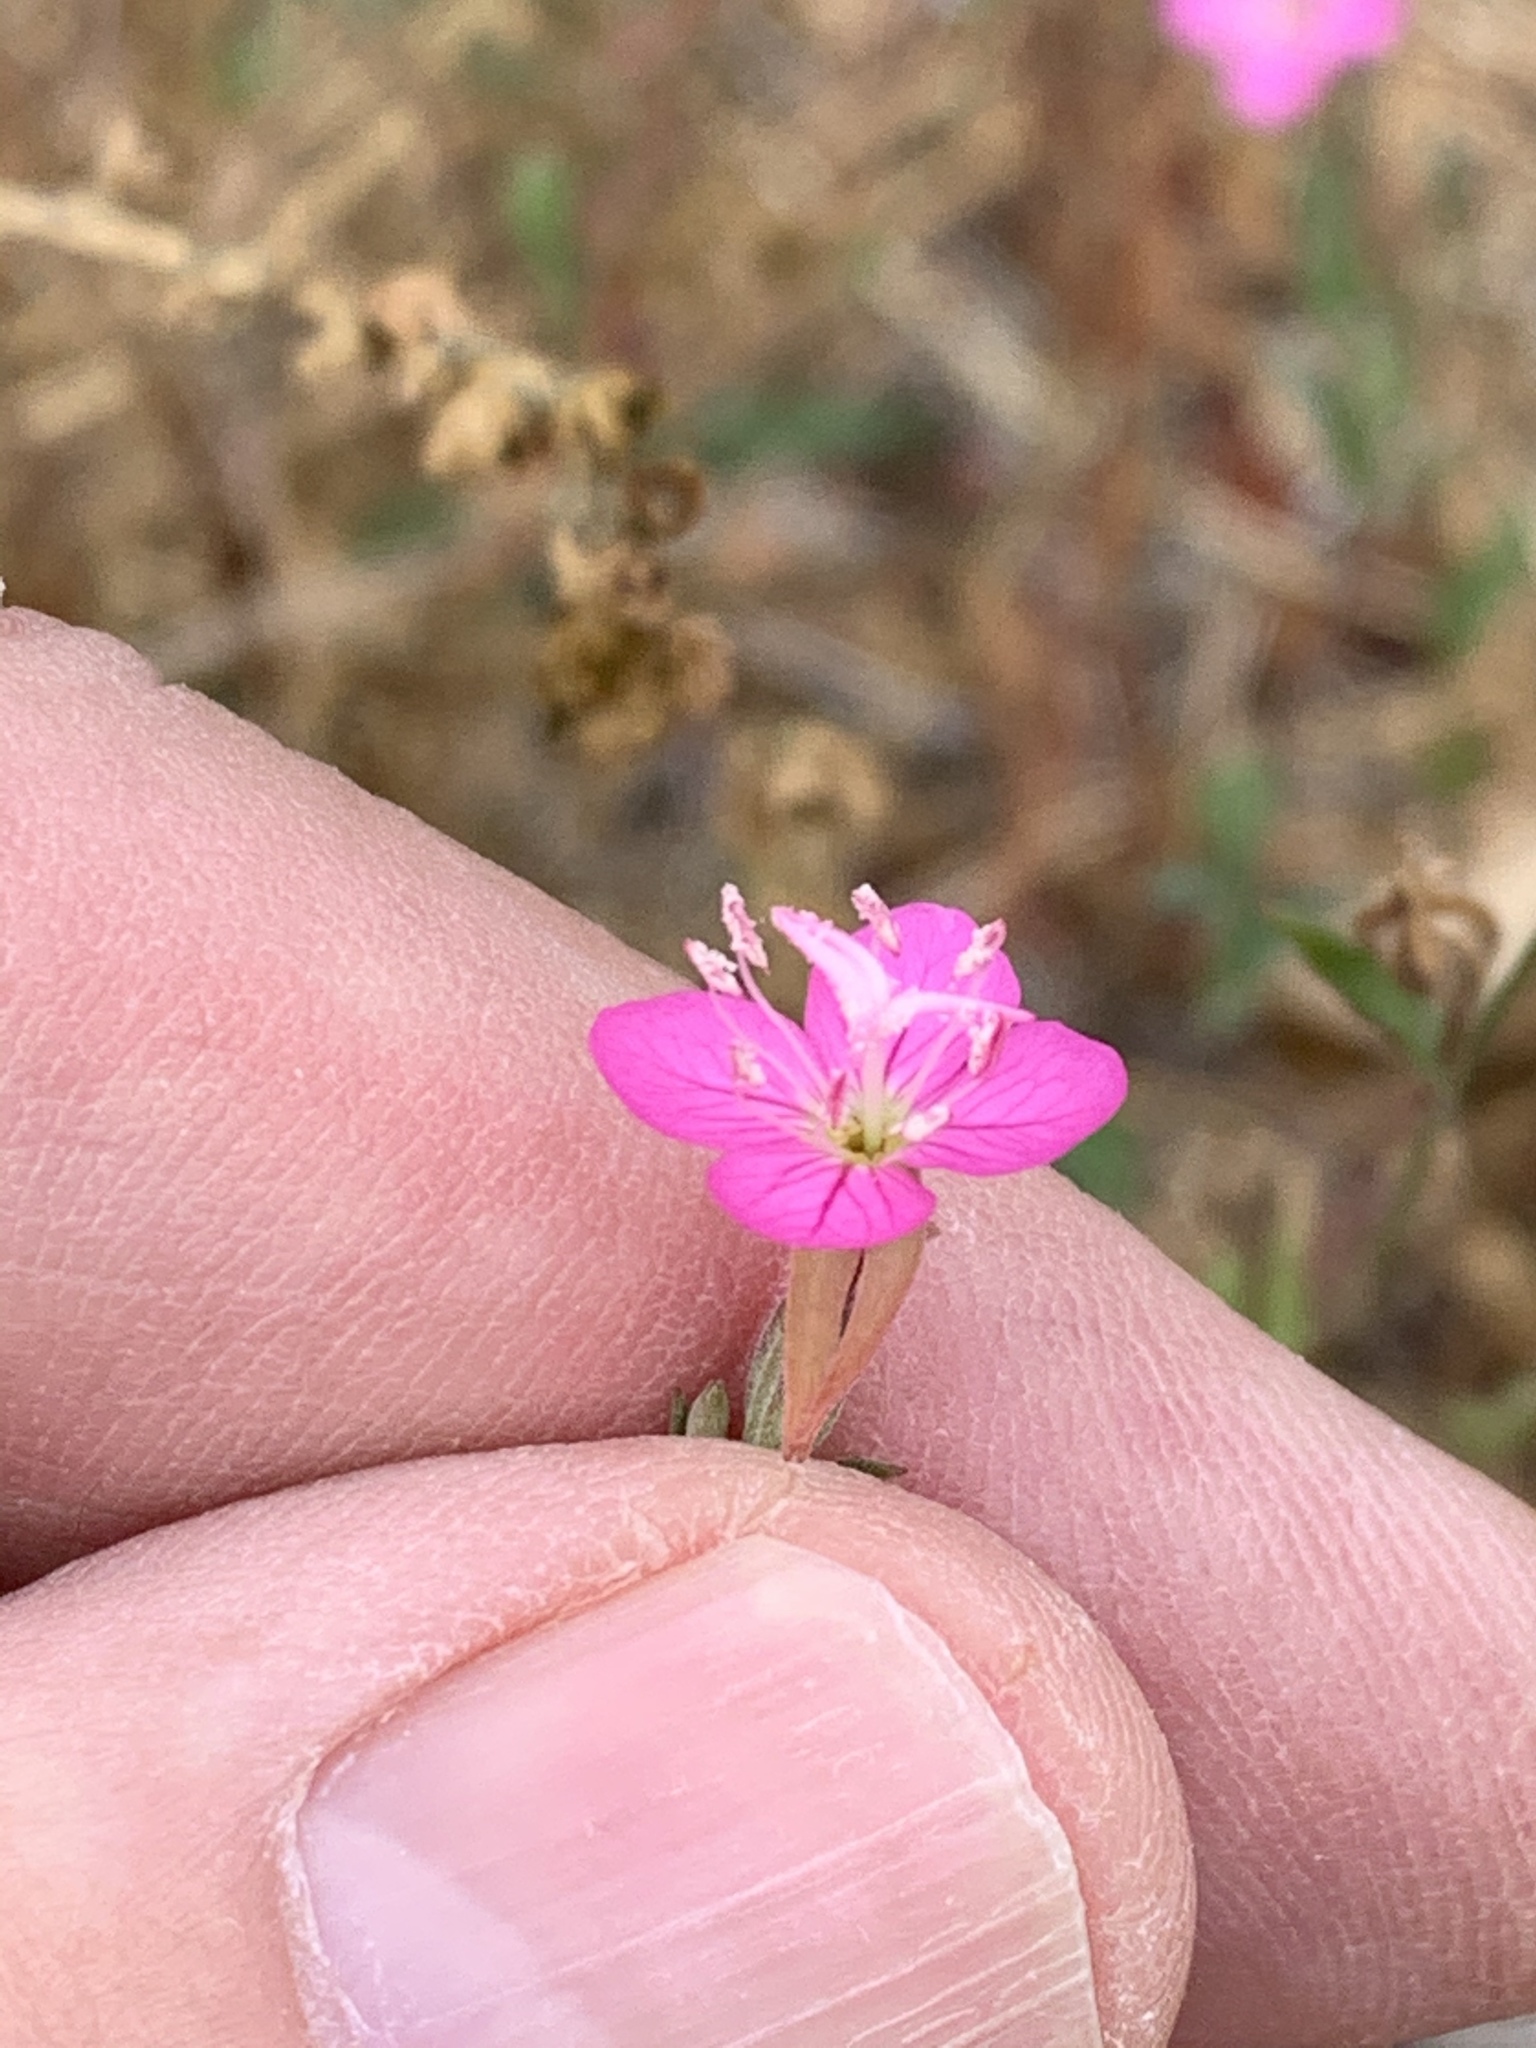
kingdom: Plantae
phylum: Tracheophyta
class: Magnoliopsida
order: Myrtales
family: Onagraceae
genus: Oenothera
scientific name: Oenothera rosea
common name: Rosy evening-primrose
